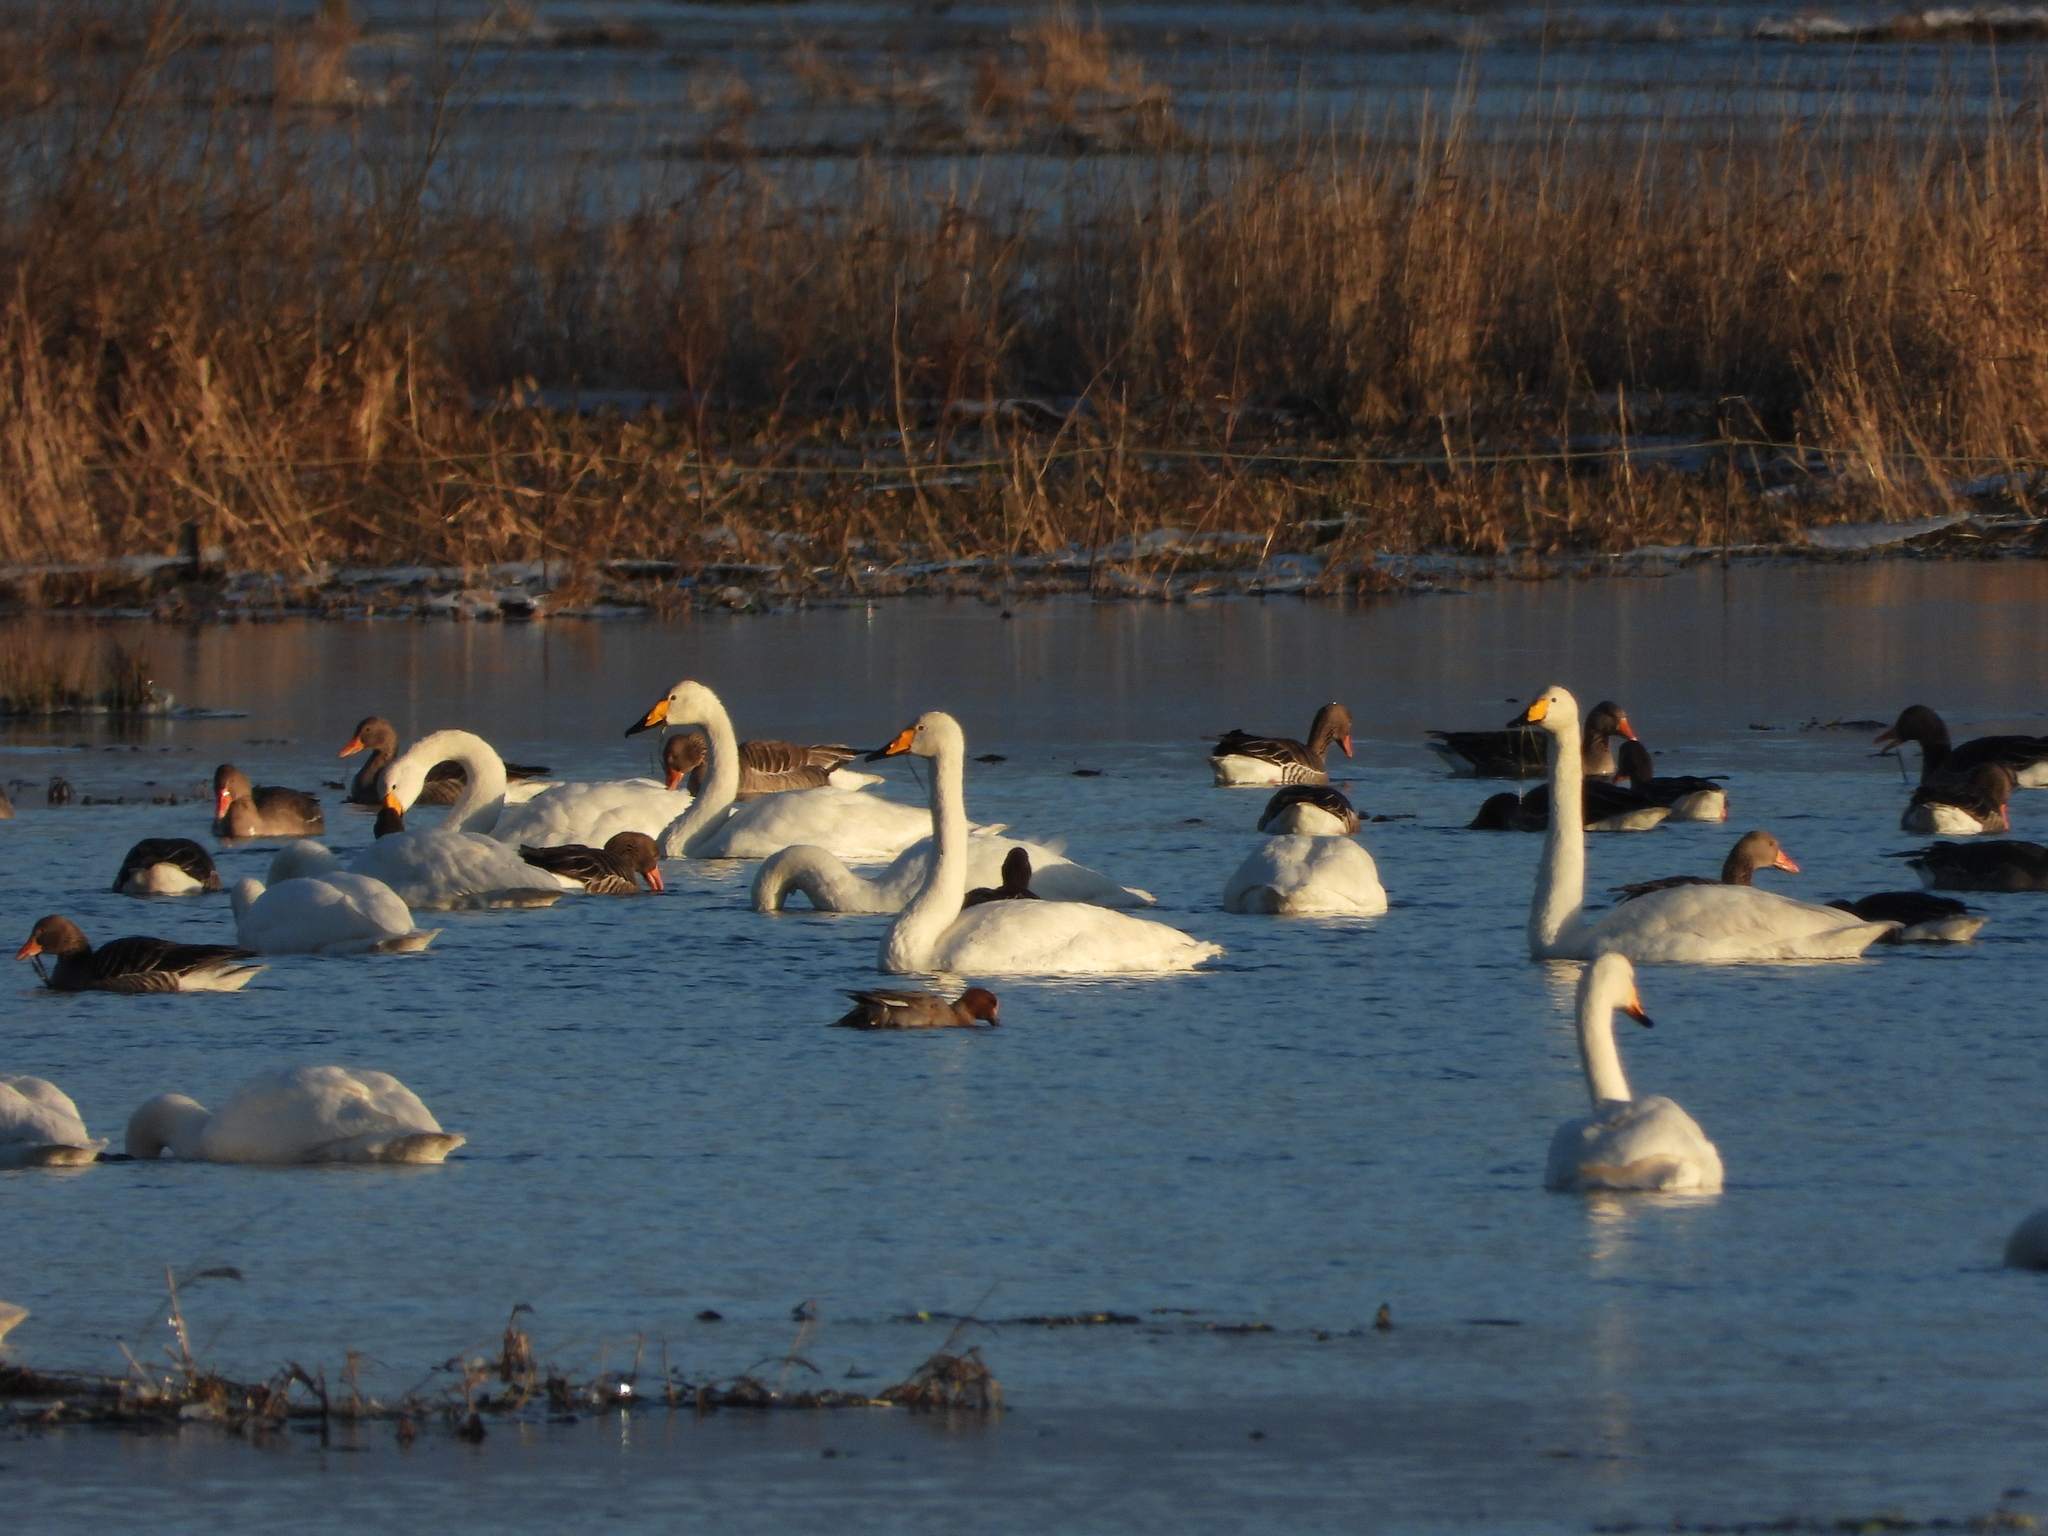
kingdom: Animalia
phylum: Chordata
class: Aves
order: Anseriformes
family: Anatidae
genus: Cygnus
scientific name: Cygnus cygnus
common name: Whooper swan
